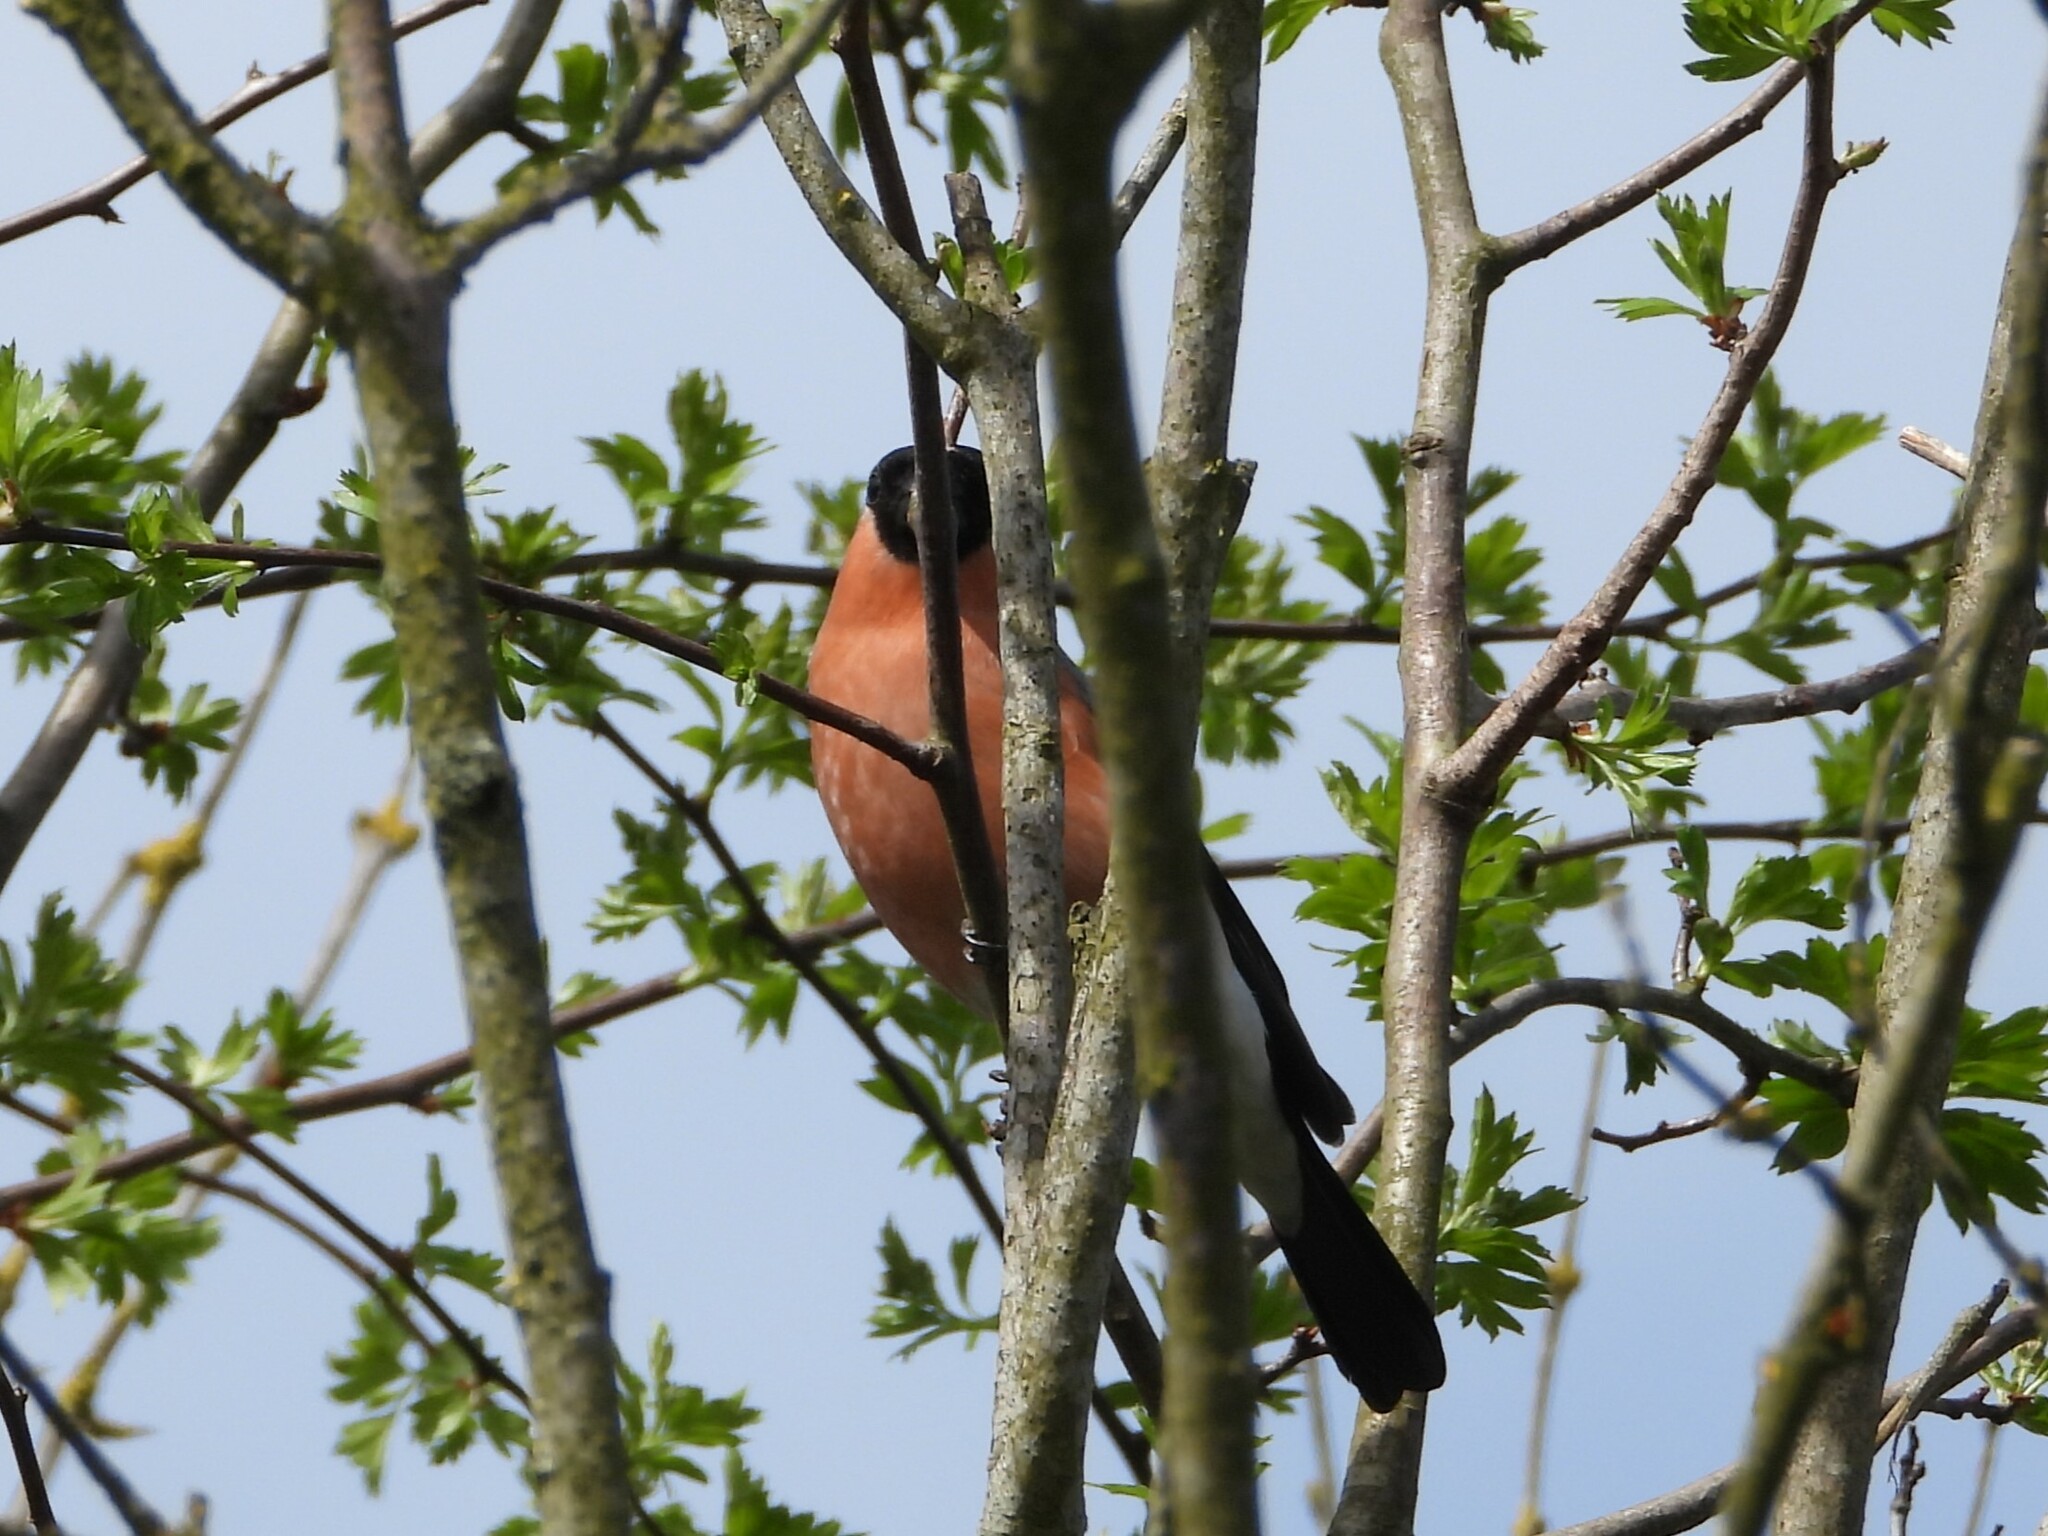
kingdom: Animalia
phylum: Chordata
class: Aves
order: Passeriformes
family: Fringillidae
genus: Pyrrhula
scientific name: Pyrrhula pyrrhula
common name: Eurasian bullfinch
